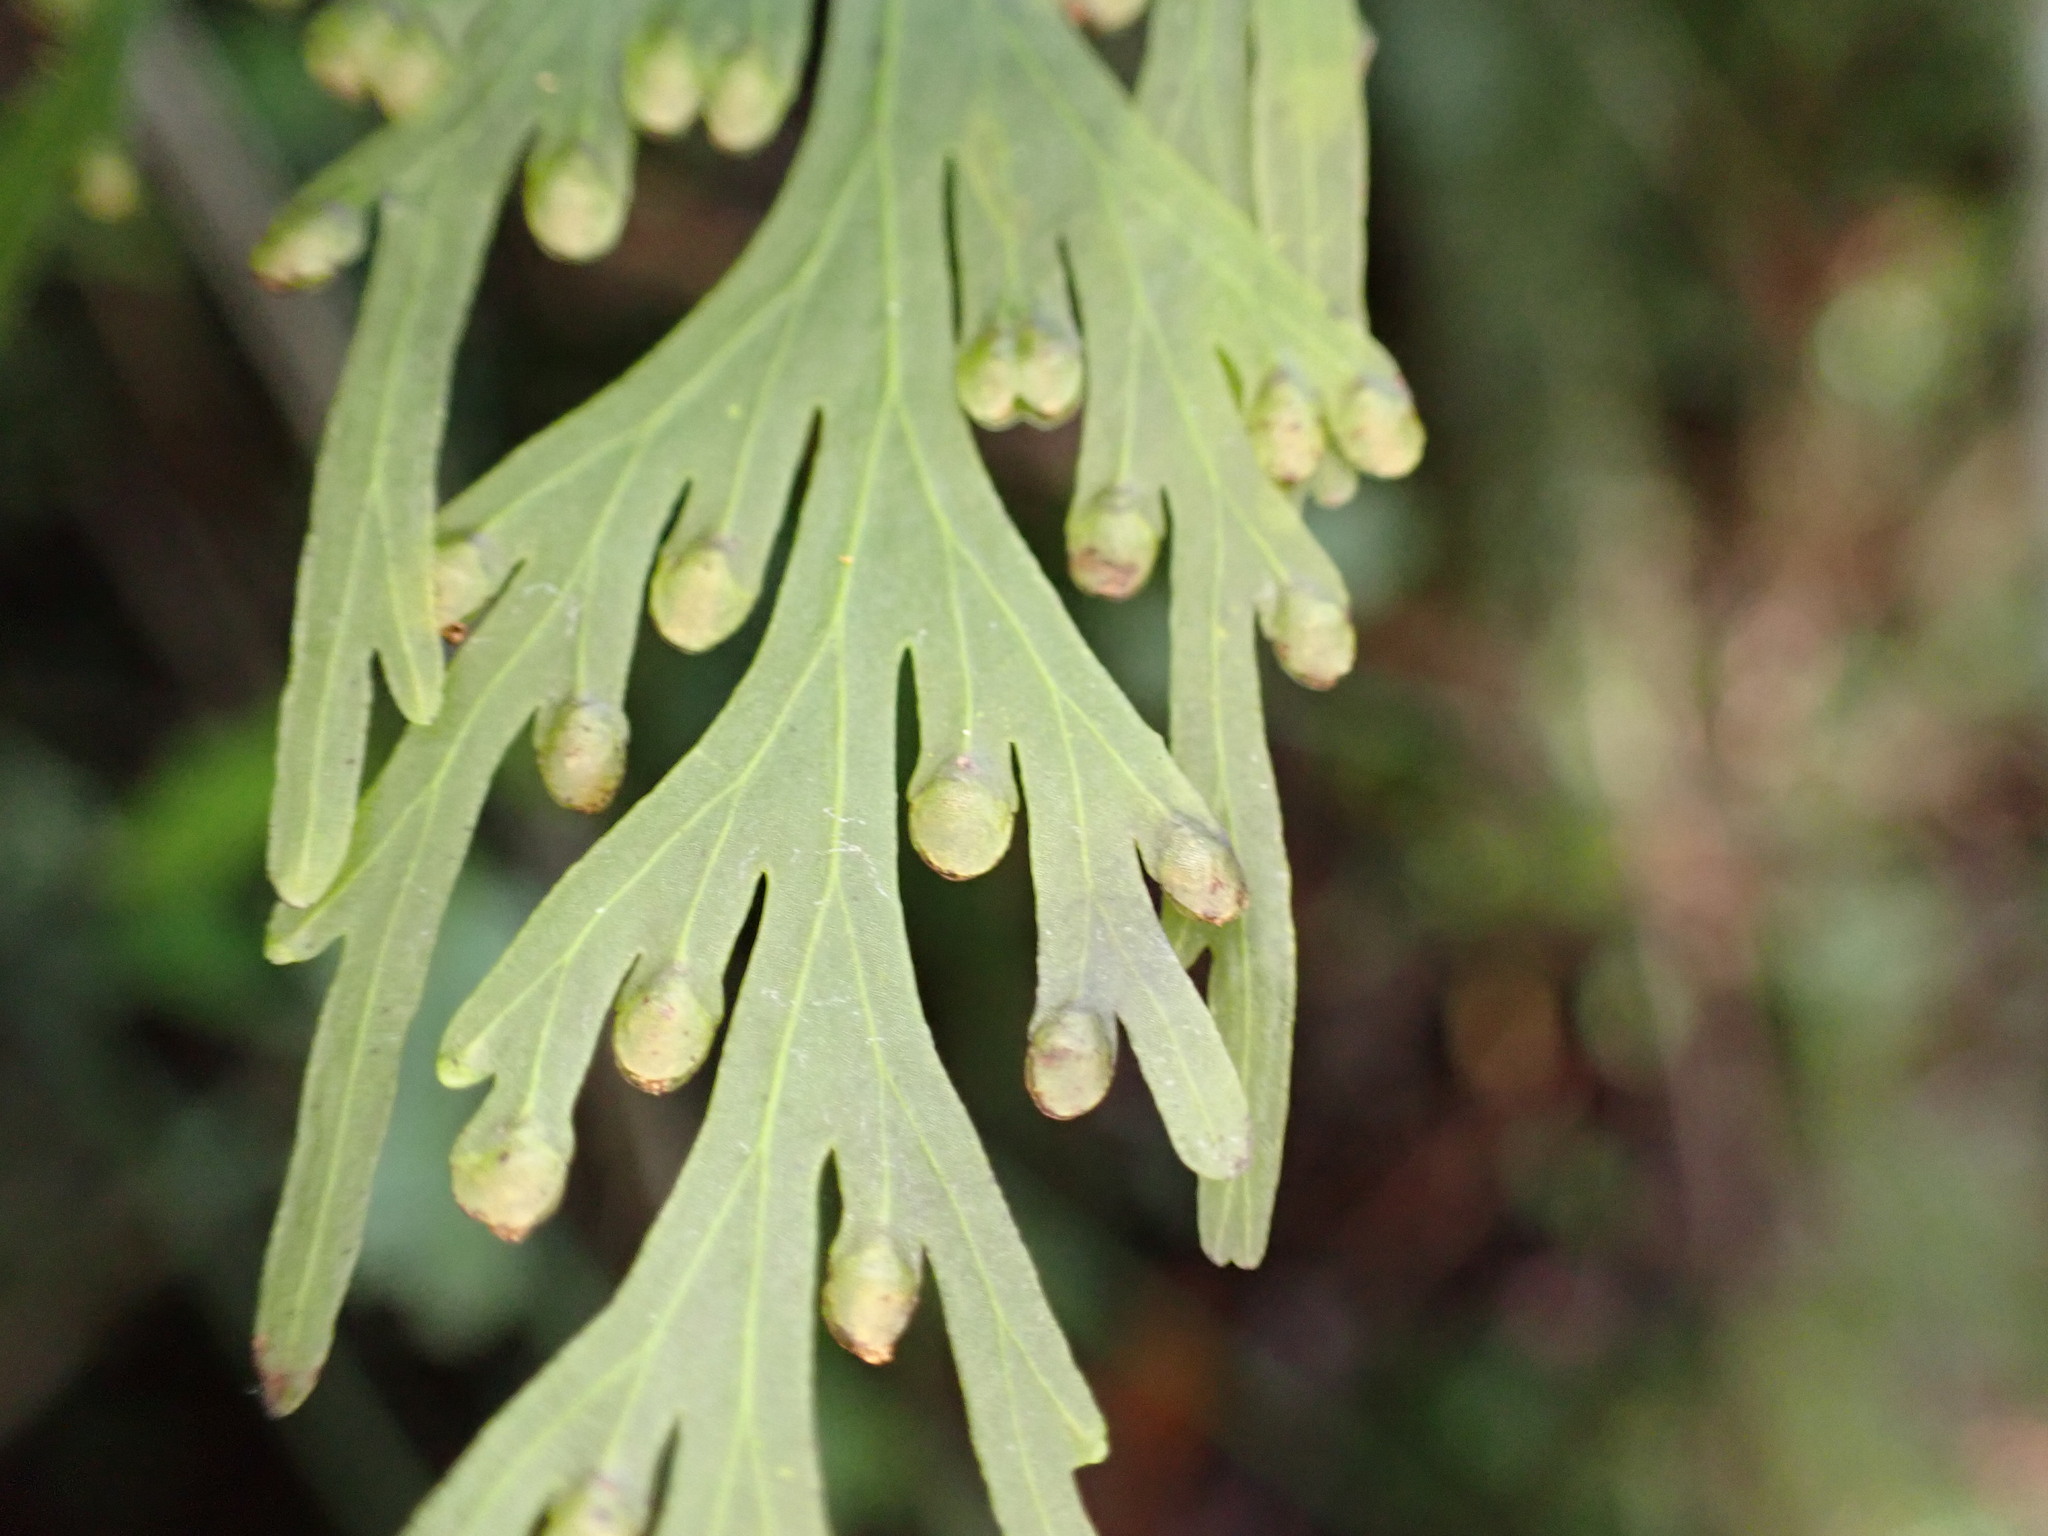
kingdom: Plantae
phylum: Tracheophyta
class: Polypodiopsida
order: Hymenophyllales
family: Hymenophyllaceae
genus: Hymenophyllum
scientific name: Hymenophyllum dilatatum
